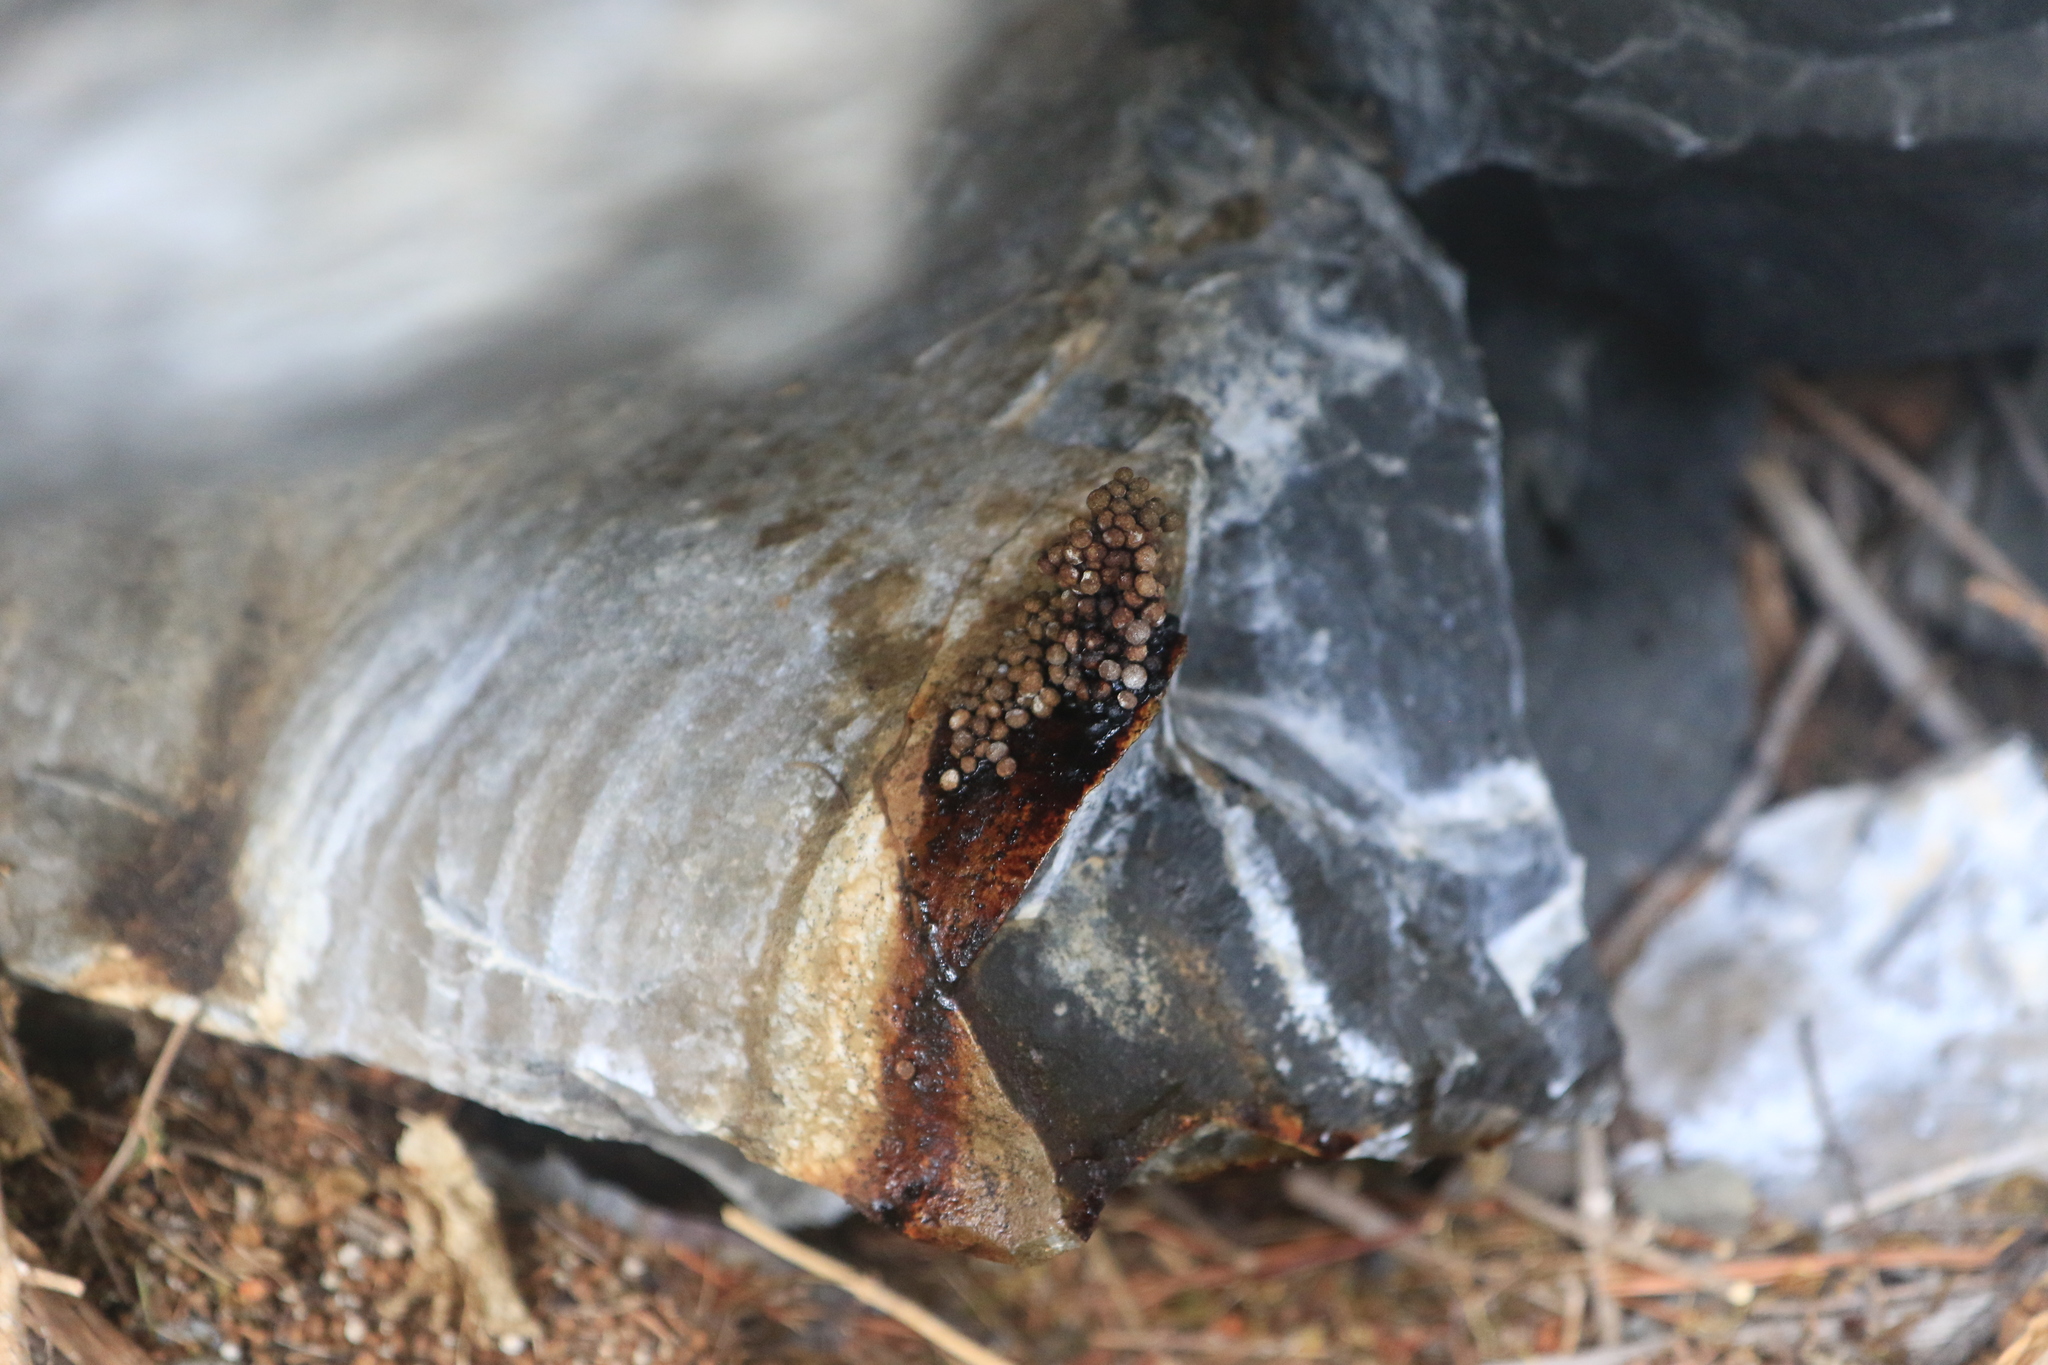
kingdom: Animalia
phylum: Chordata
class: Mammalia
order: Lagomorpha
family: Ochotonidae
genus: Ochotona
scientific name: Ochotona princeps
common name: American pika
